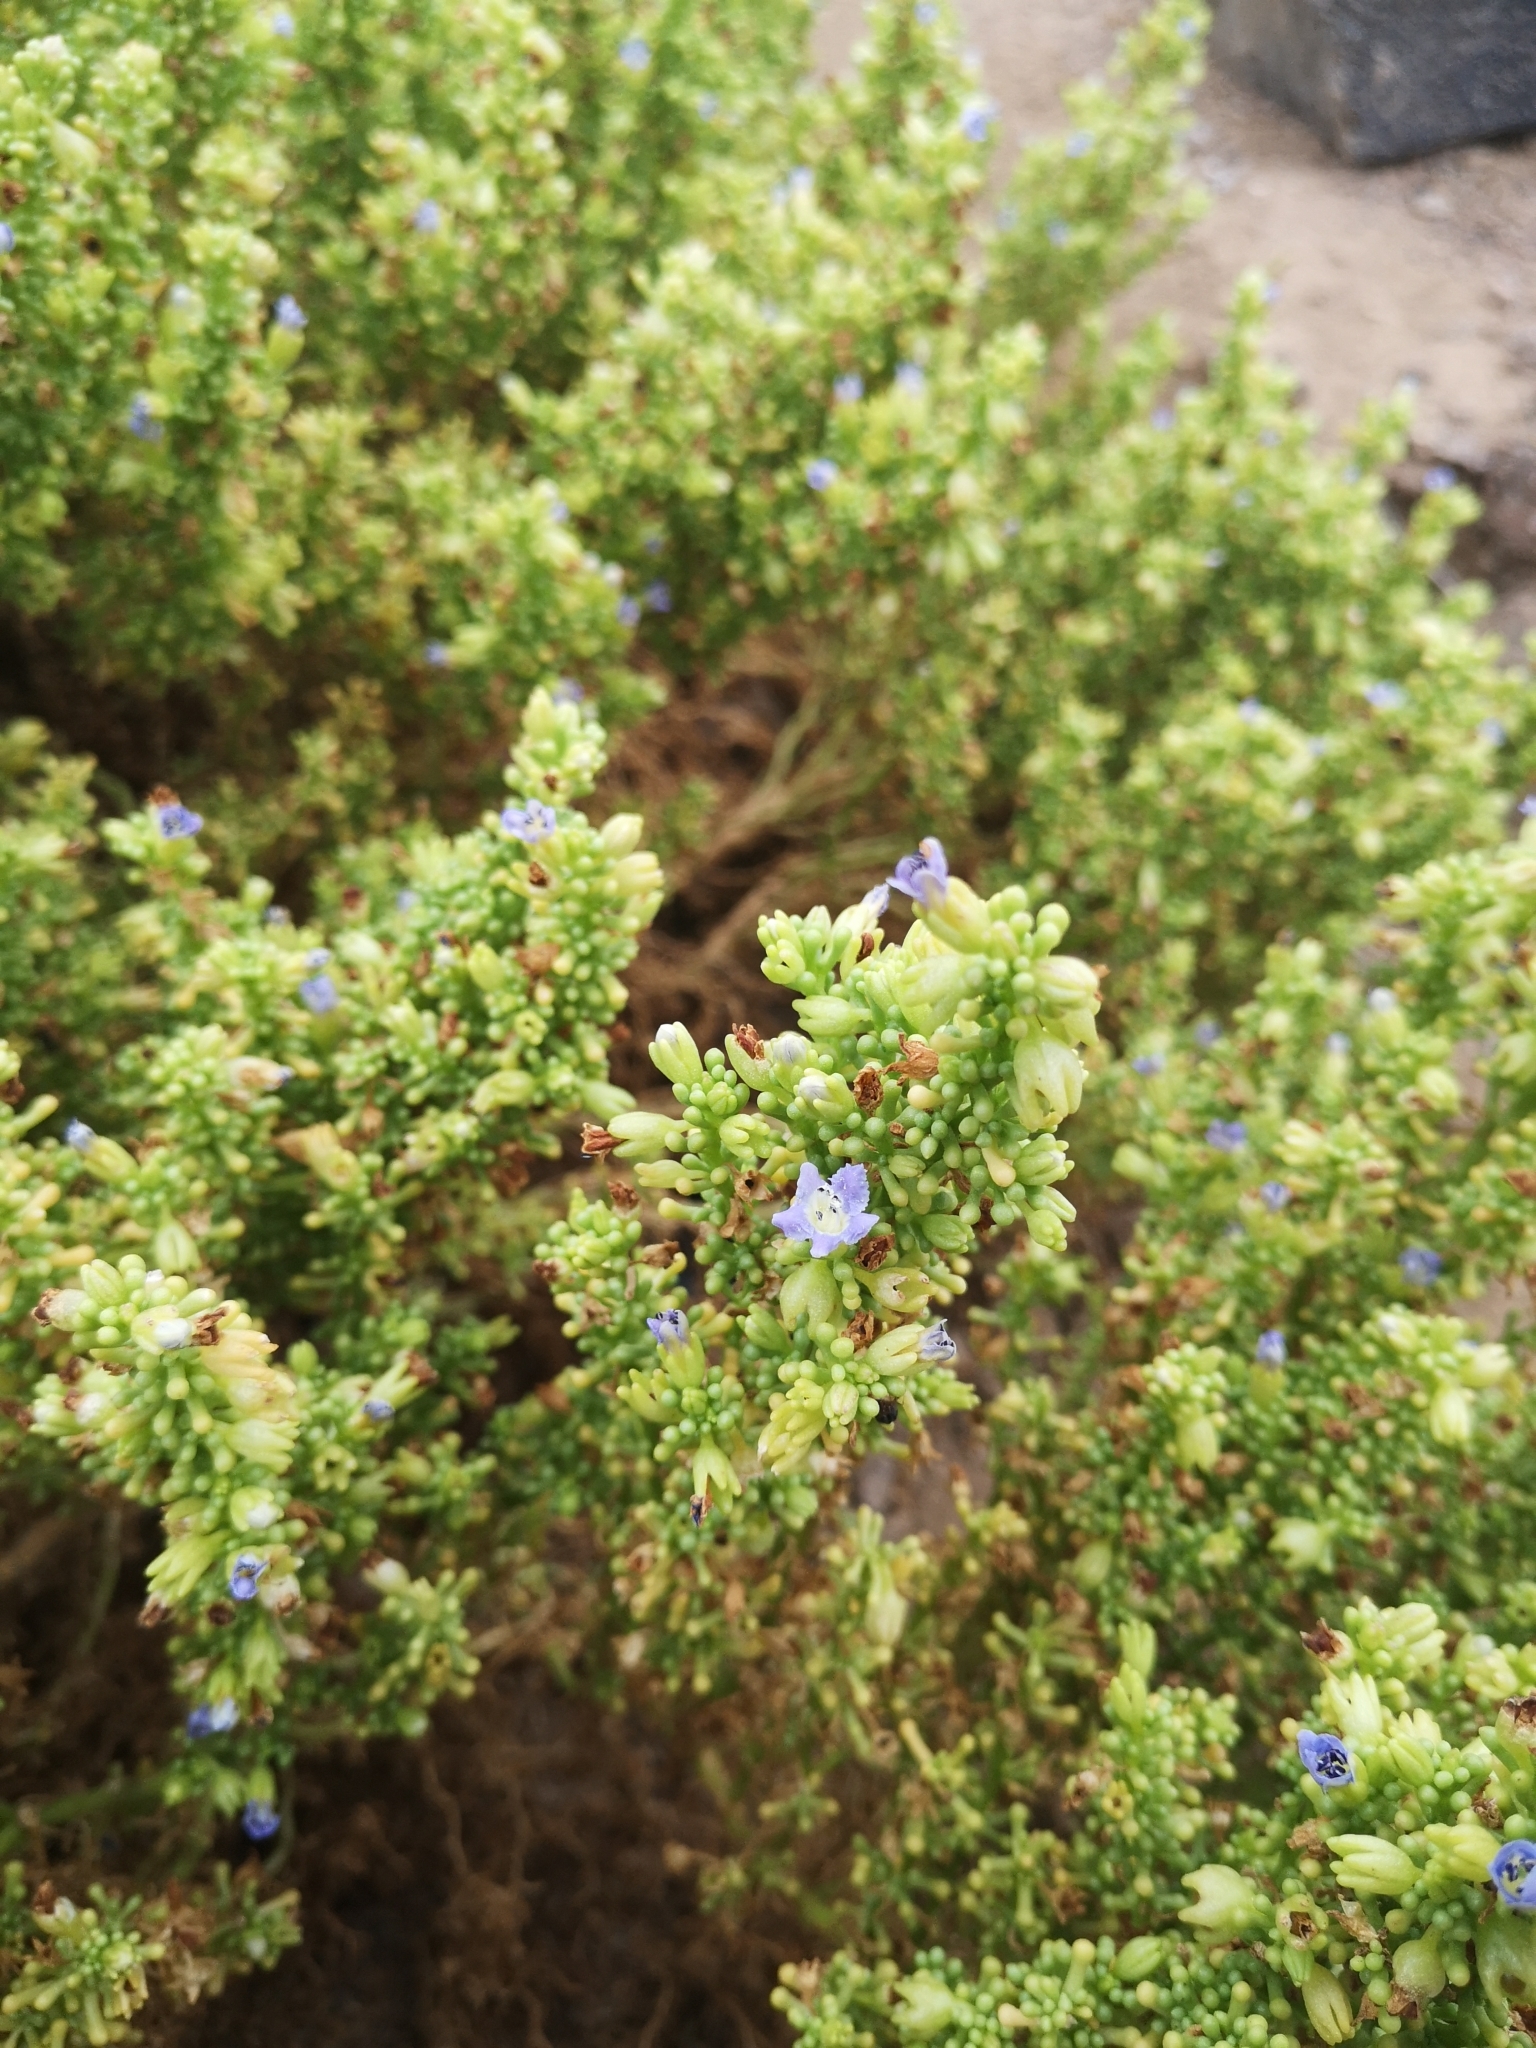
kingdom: Plantae
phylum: Tracheophyta
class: Magnoliopsida
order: Solanales
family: Solanaceae
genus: Nolana
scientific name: Nolana divaricata
